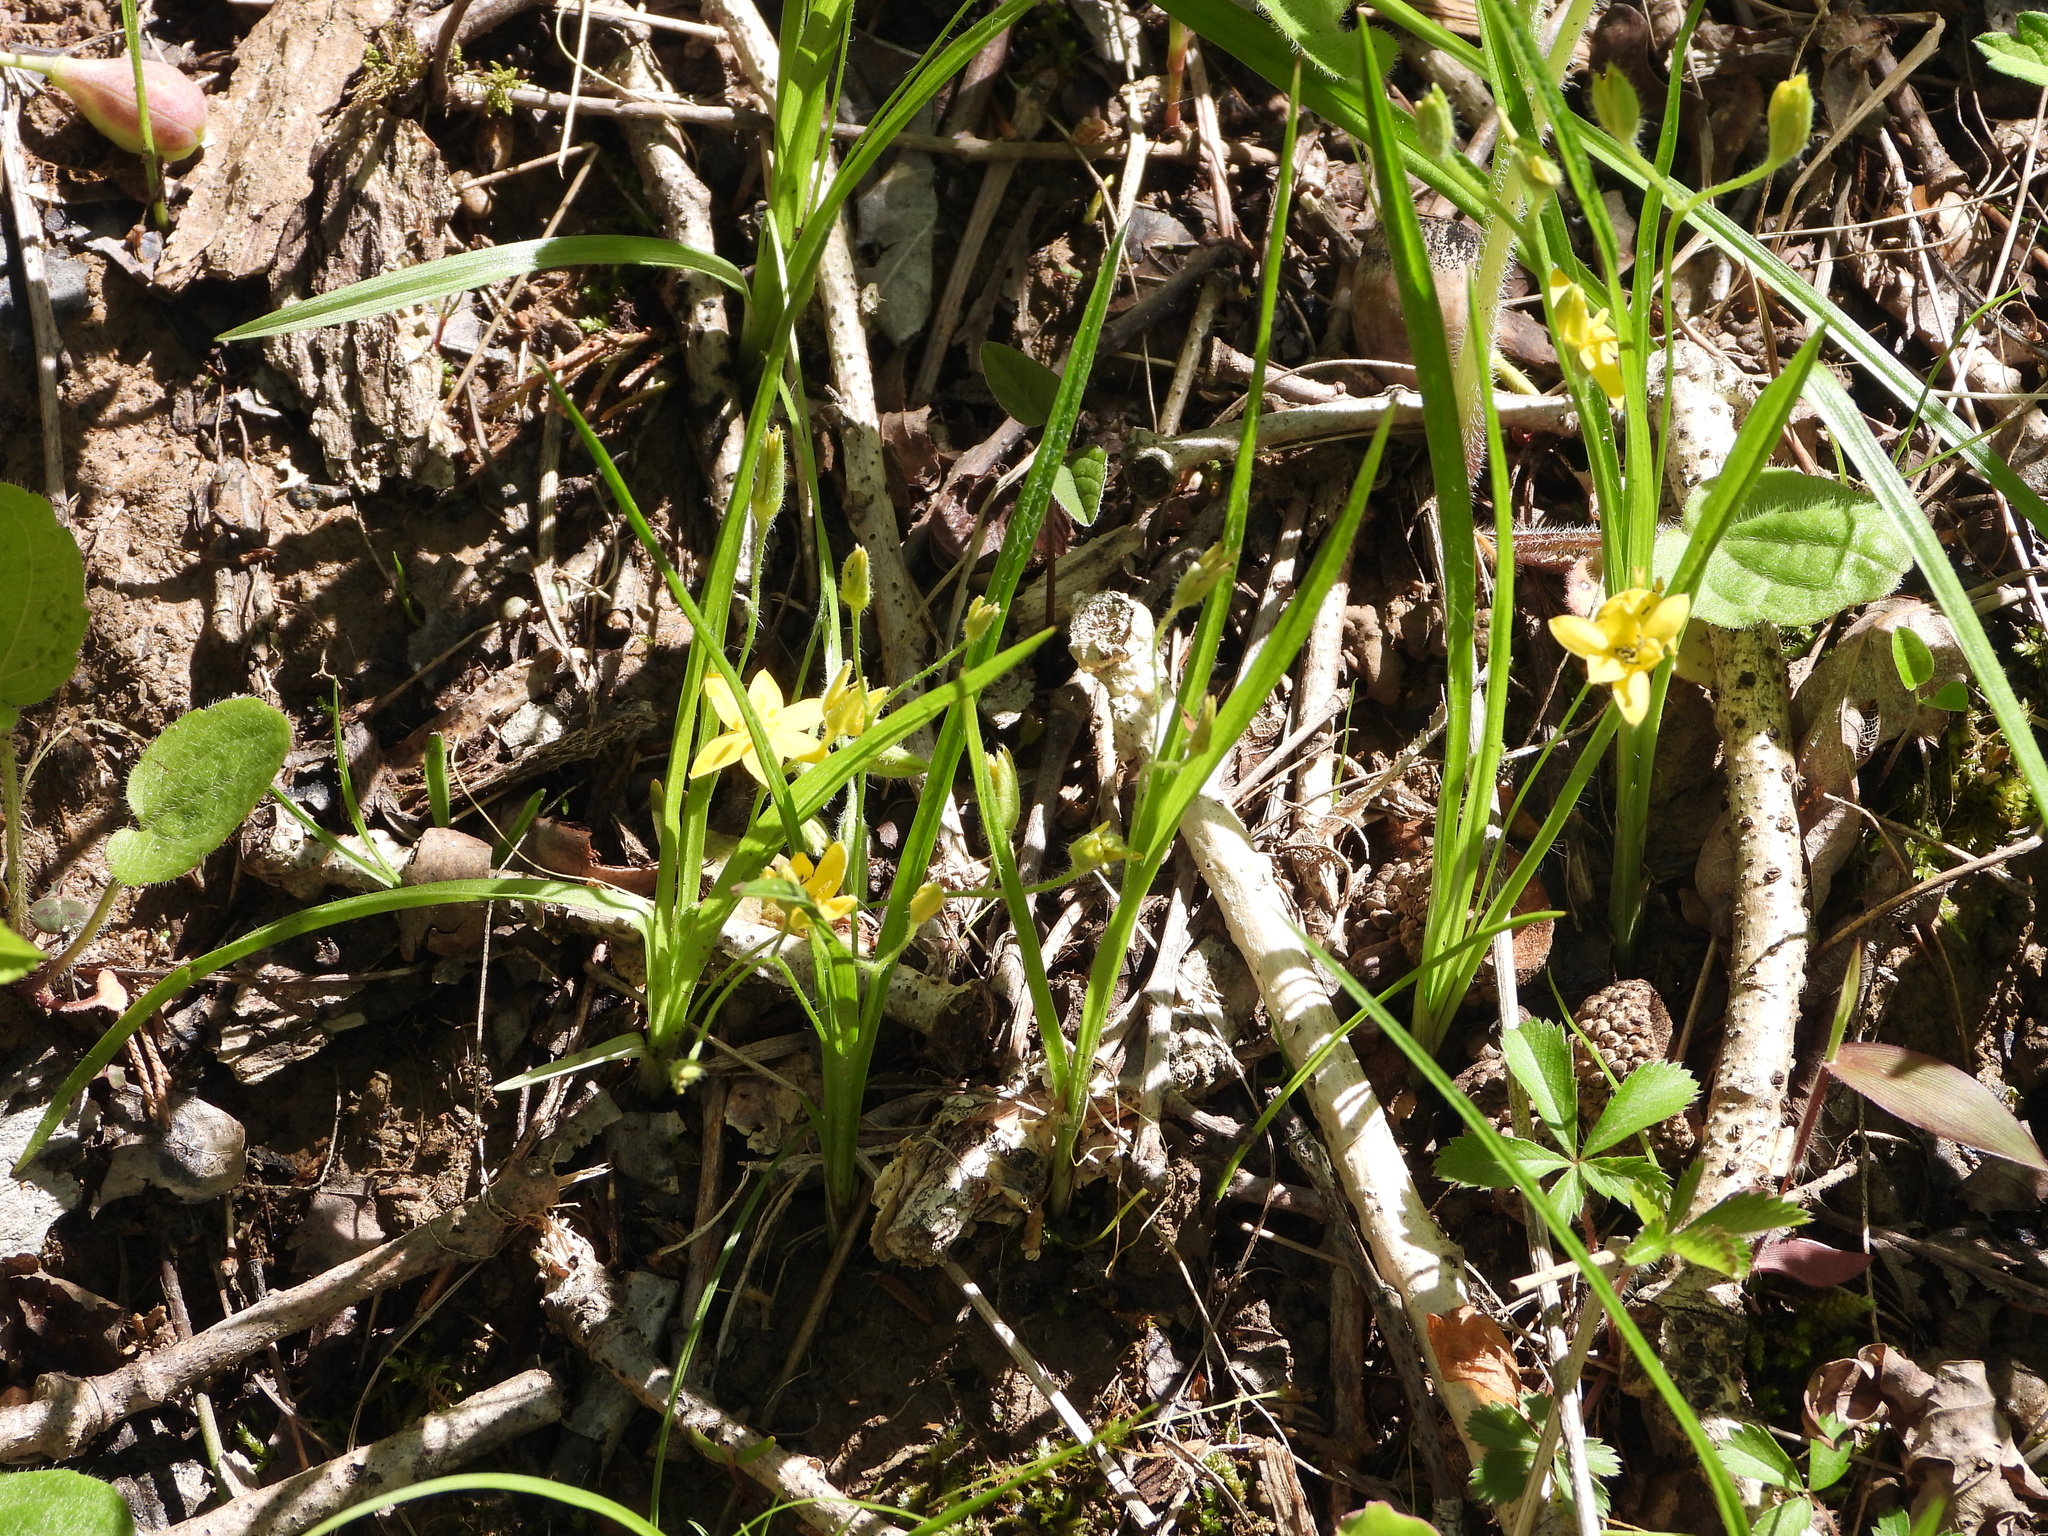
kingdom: Plantae
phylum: Tracheophyta
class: Liliopsida
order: Asparagales
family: Hypoxidaceae
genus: Hypoxis
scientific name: Hypoxis hirsuta
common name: Common goldstar
